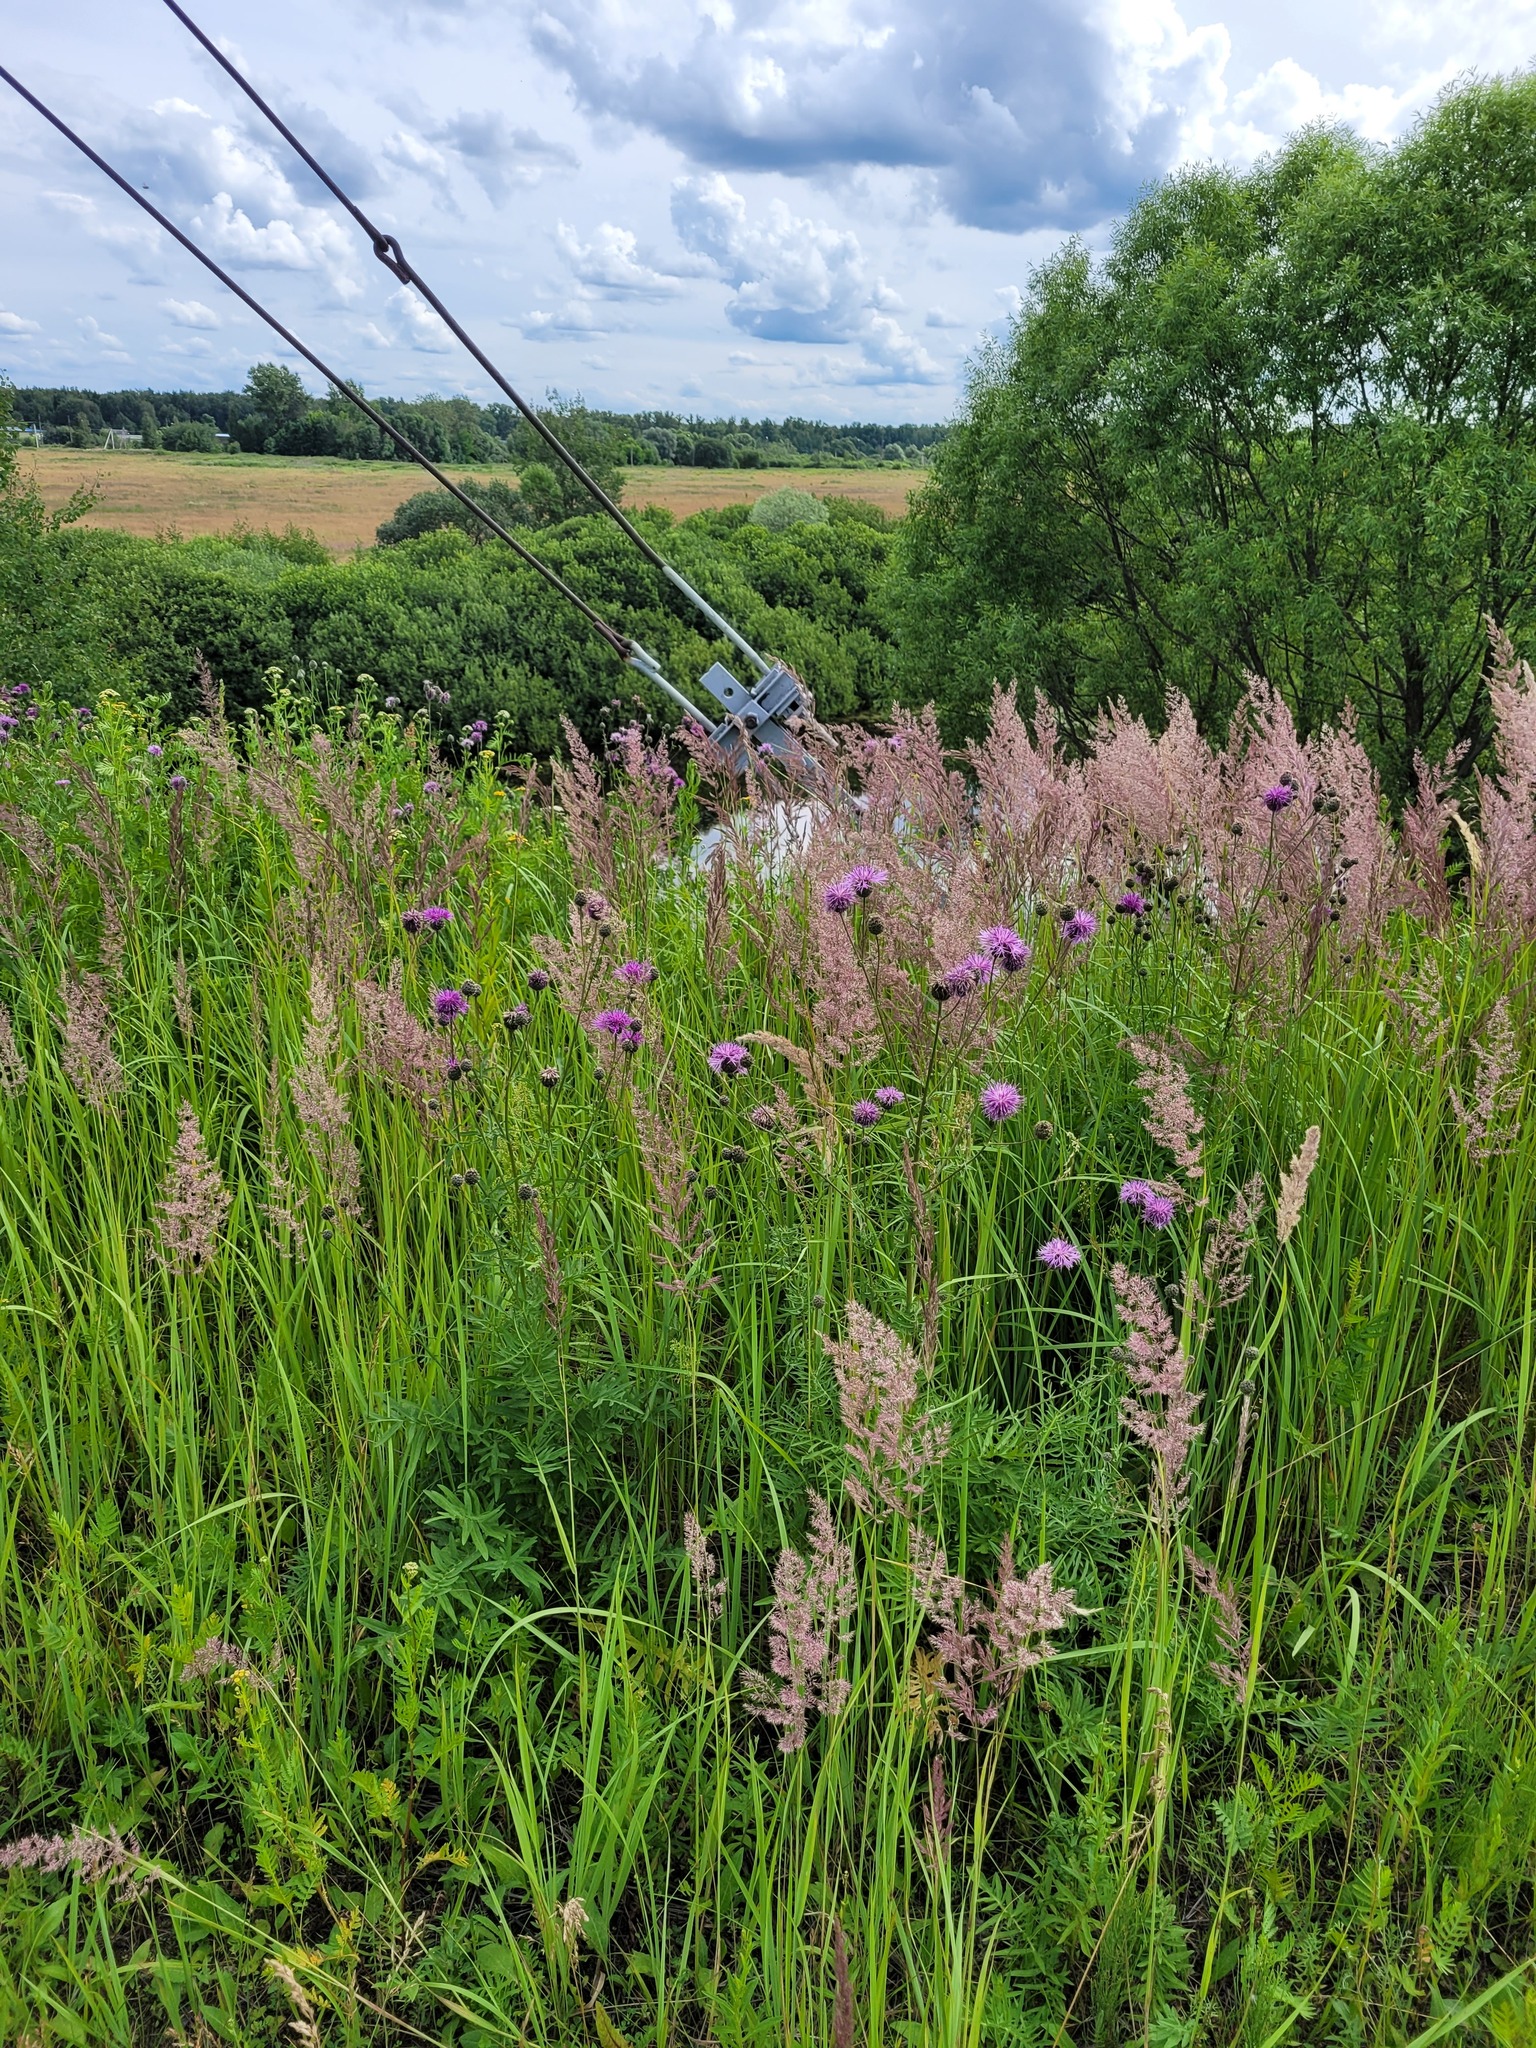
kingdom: Plantae
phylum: Tracheophyta
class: Magnoliopsida
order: Asterales
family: Asteraceae
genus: Centaurea
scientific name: Centaurea scabiosa
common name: Greater knapweed
